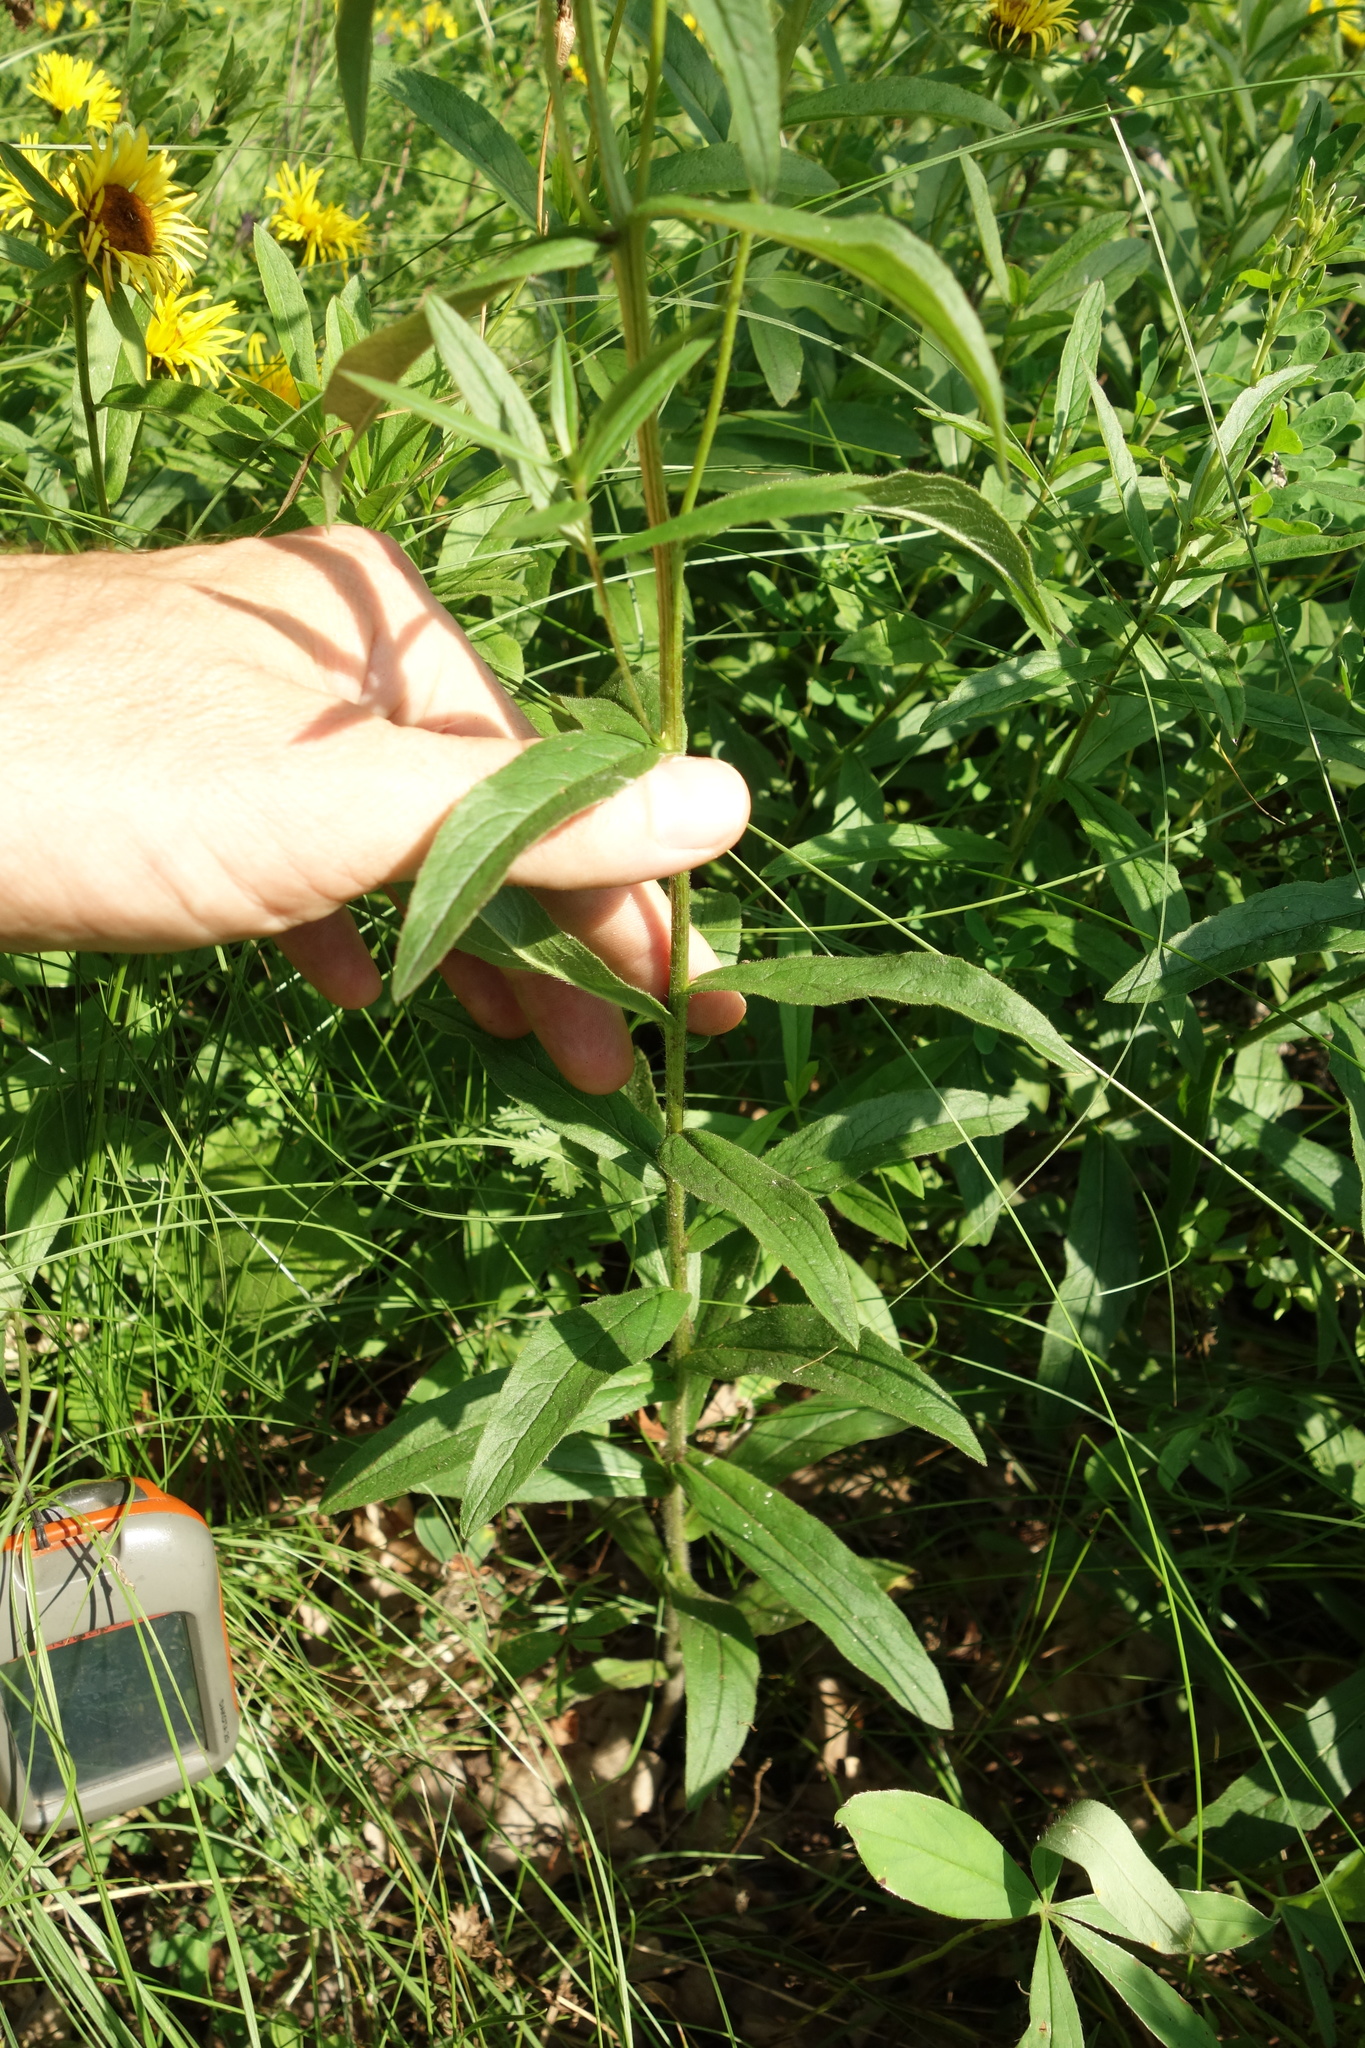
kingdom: Plantae
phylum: Tracheophyta
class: Magnoliopsida
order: Asterales
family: Asteraceae
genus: Pentanema
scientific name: Pentanema salicinum
